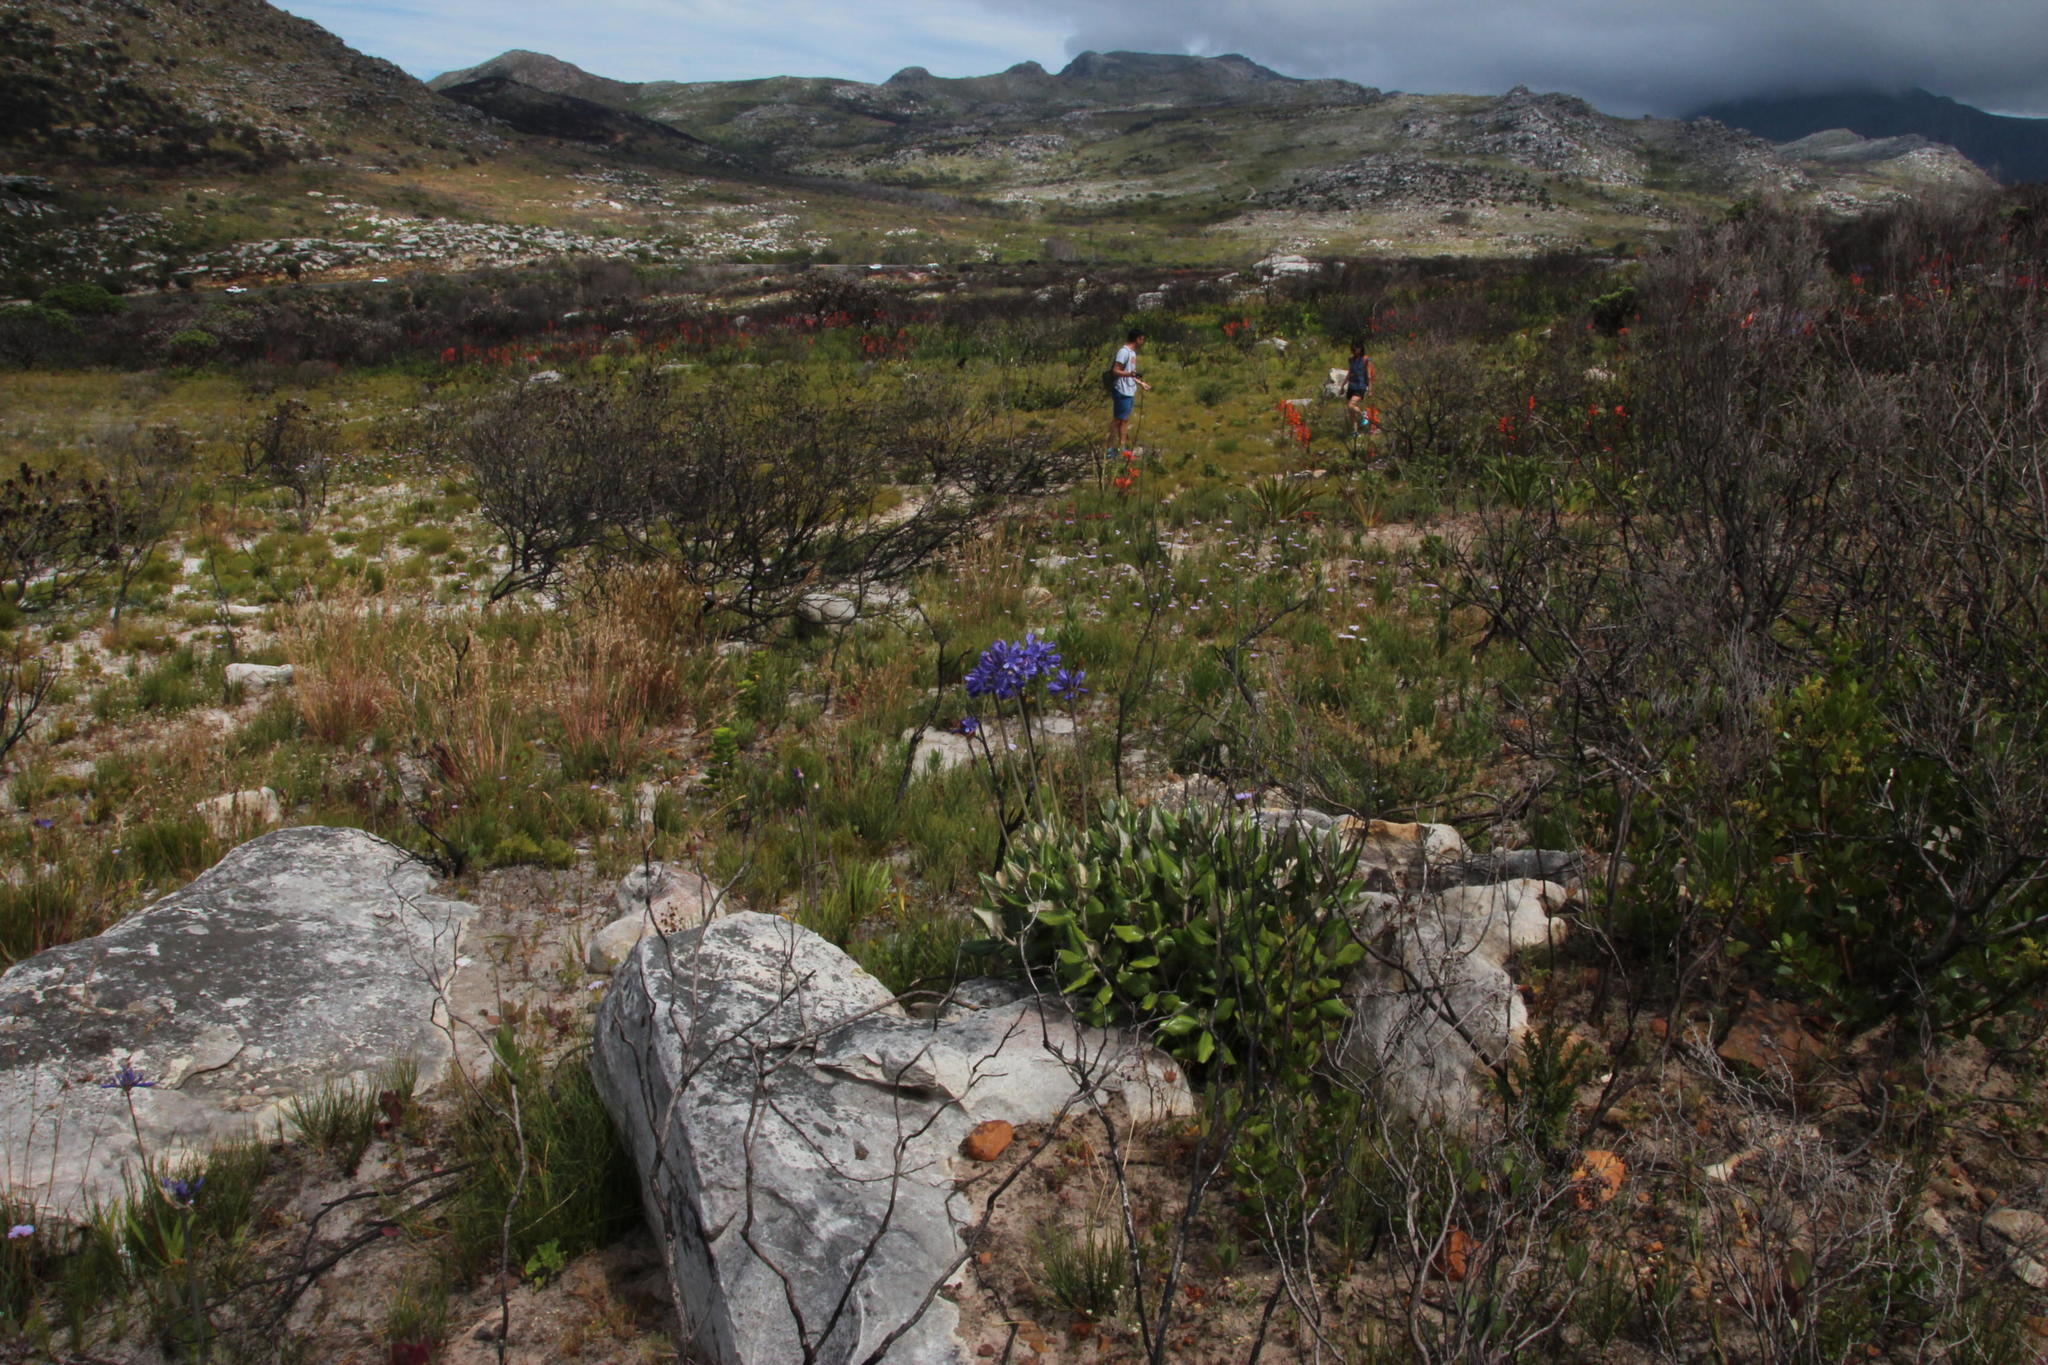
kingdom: Plantae
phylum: Tracheophyta
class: Liliopsida
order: Asparagales
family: Amaryllidaceae
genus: Agapanthus
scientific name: Agapanthus africanus
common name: Lily-of-the-nile
